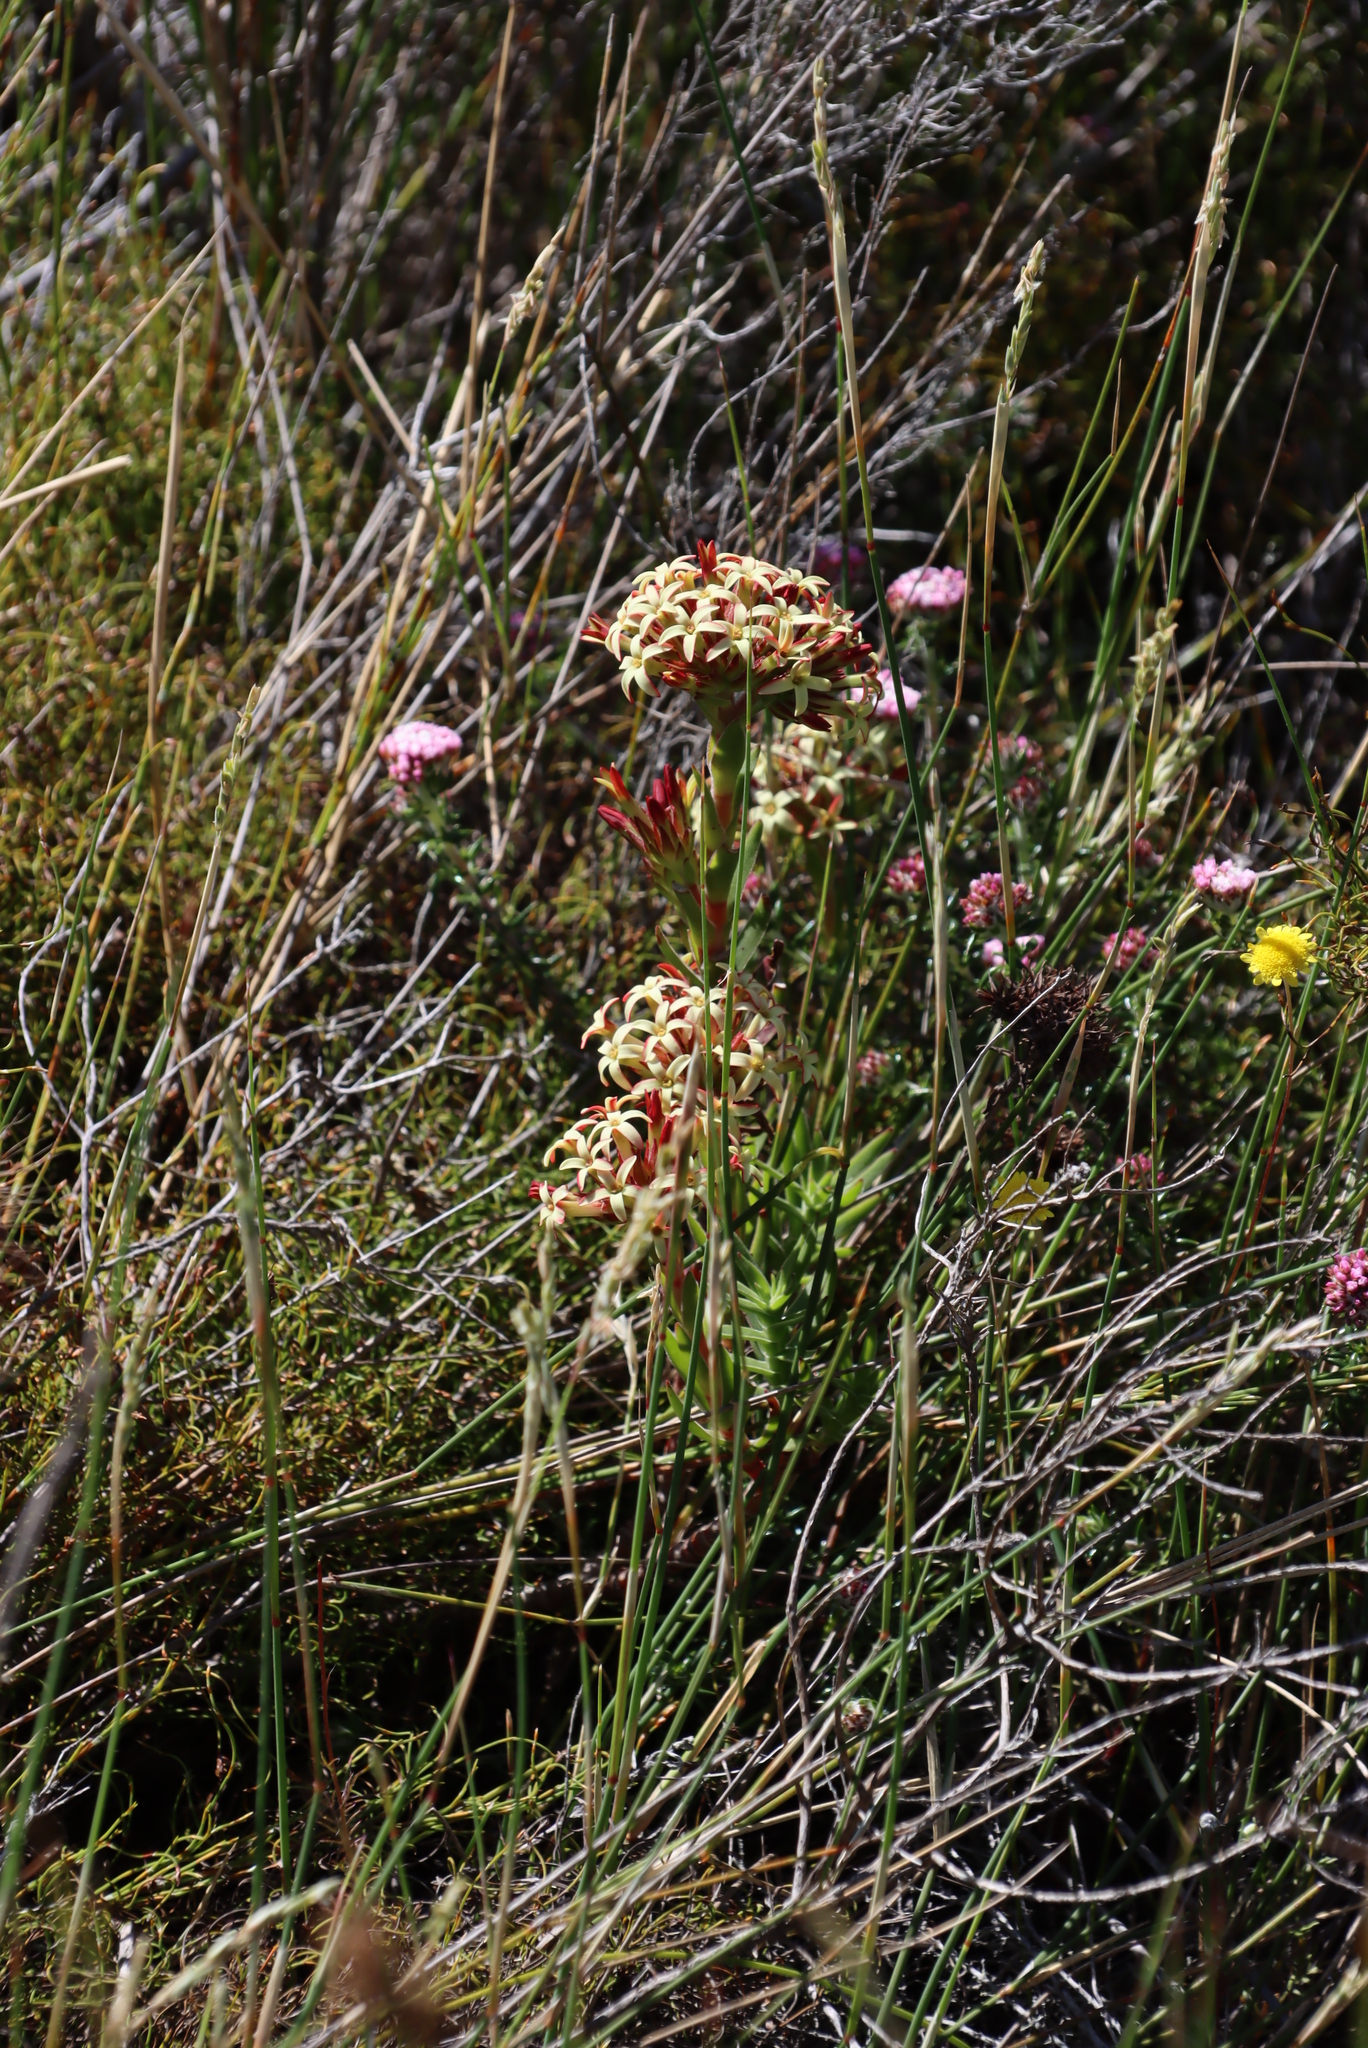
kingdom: Plantae
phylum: Tracheophyta
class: Magnoliopsida
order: Saxifragales
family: Crassulaceae
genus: Crassula
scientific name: Crassula fascicularis
